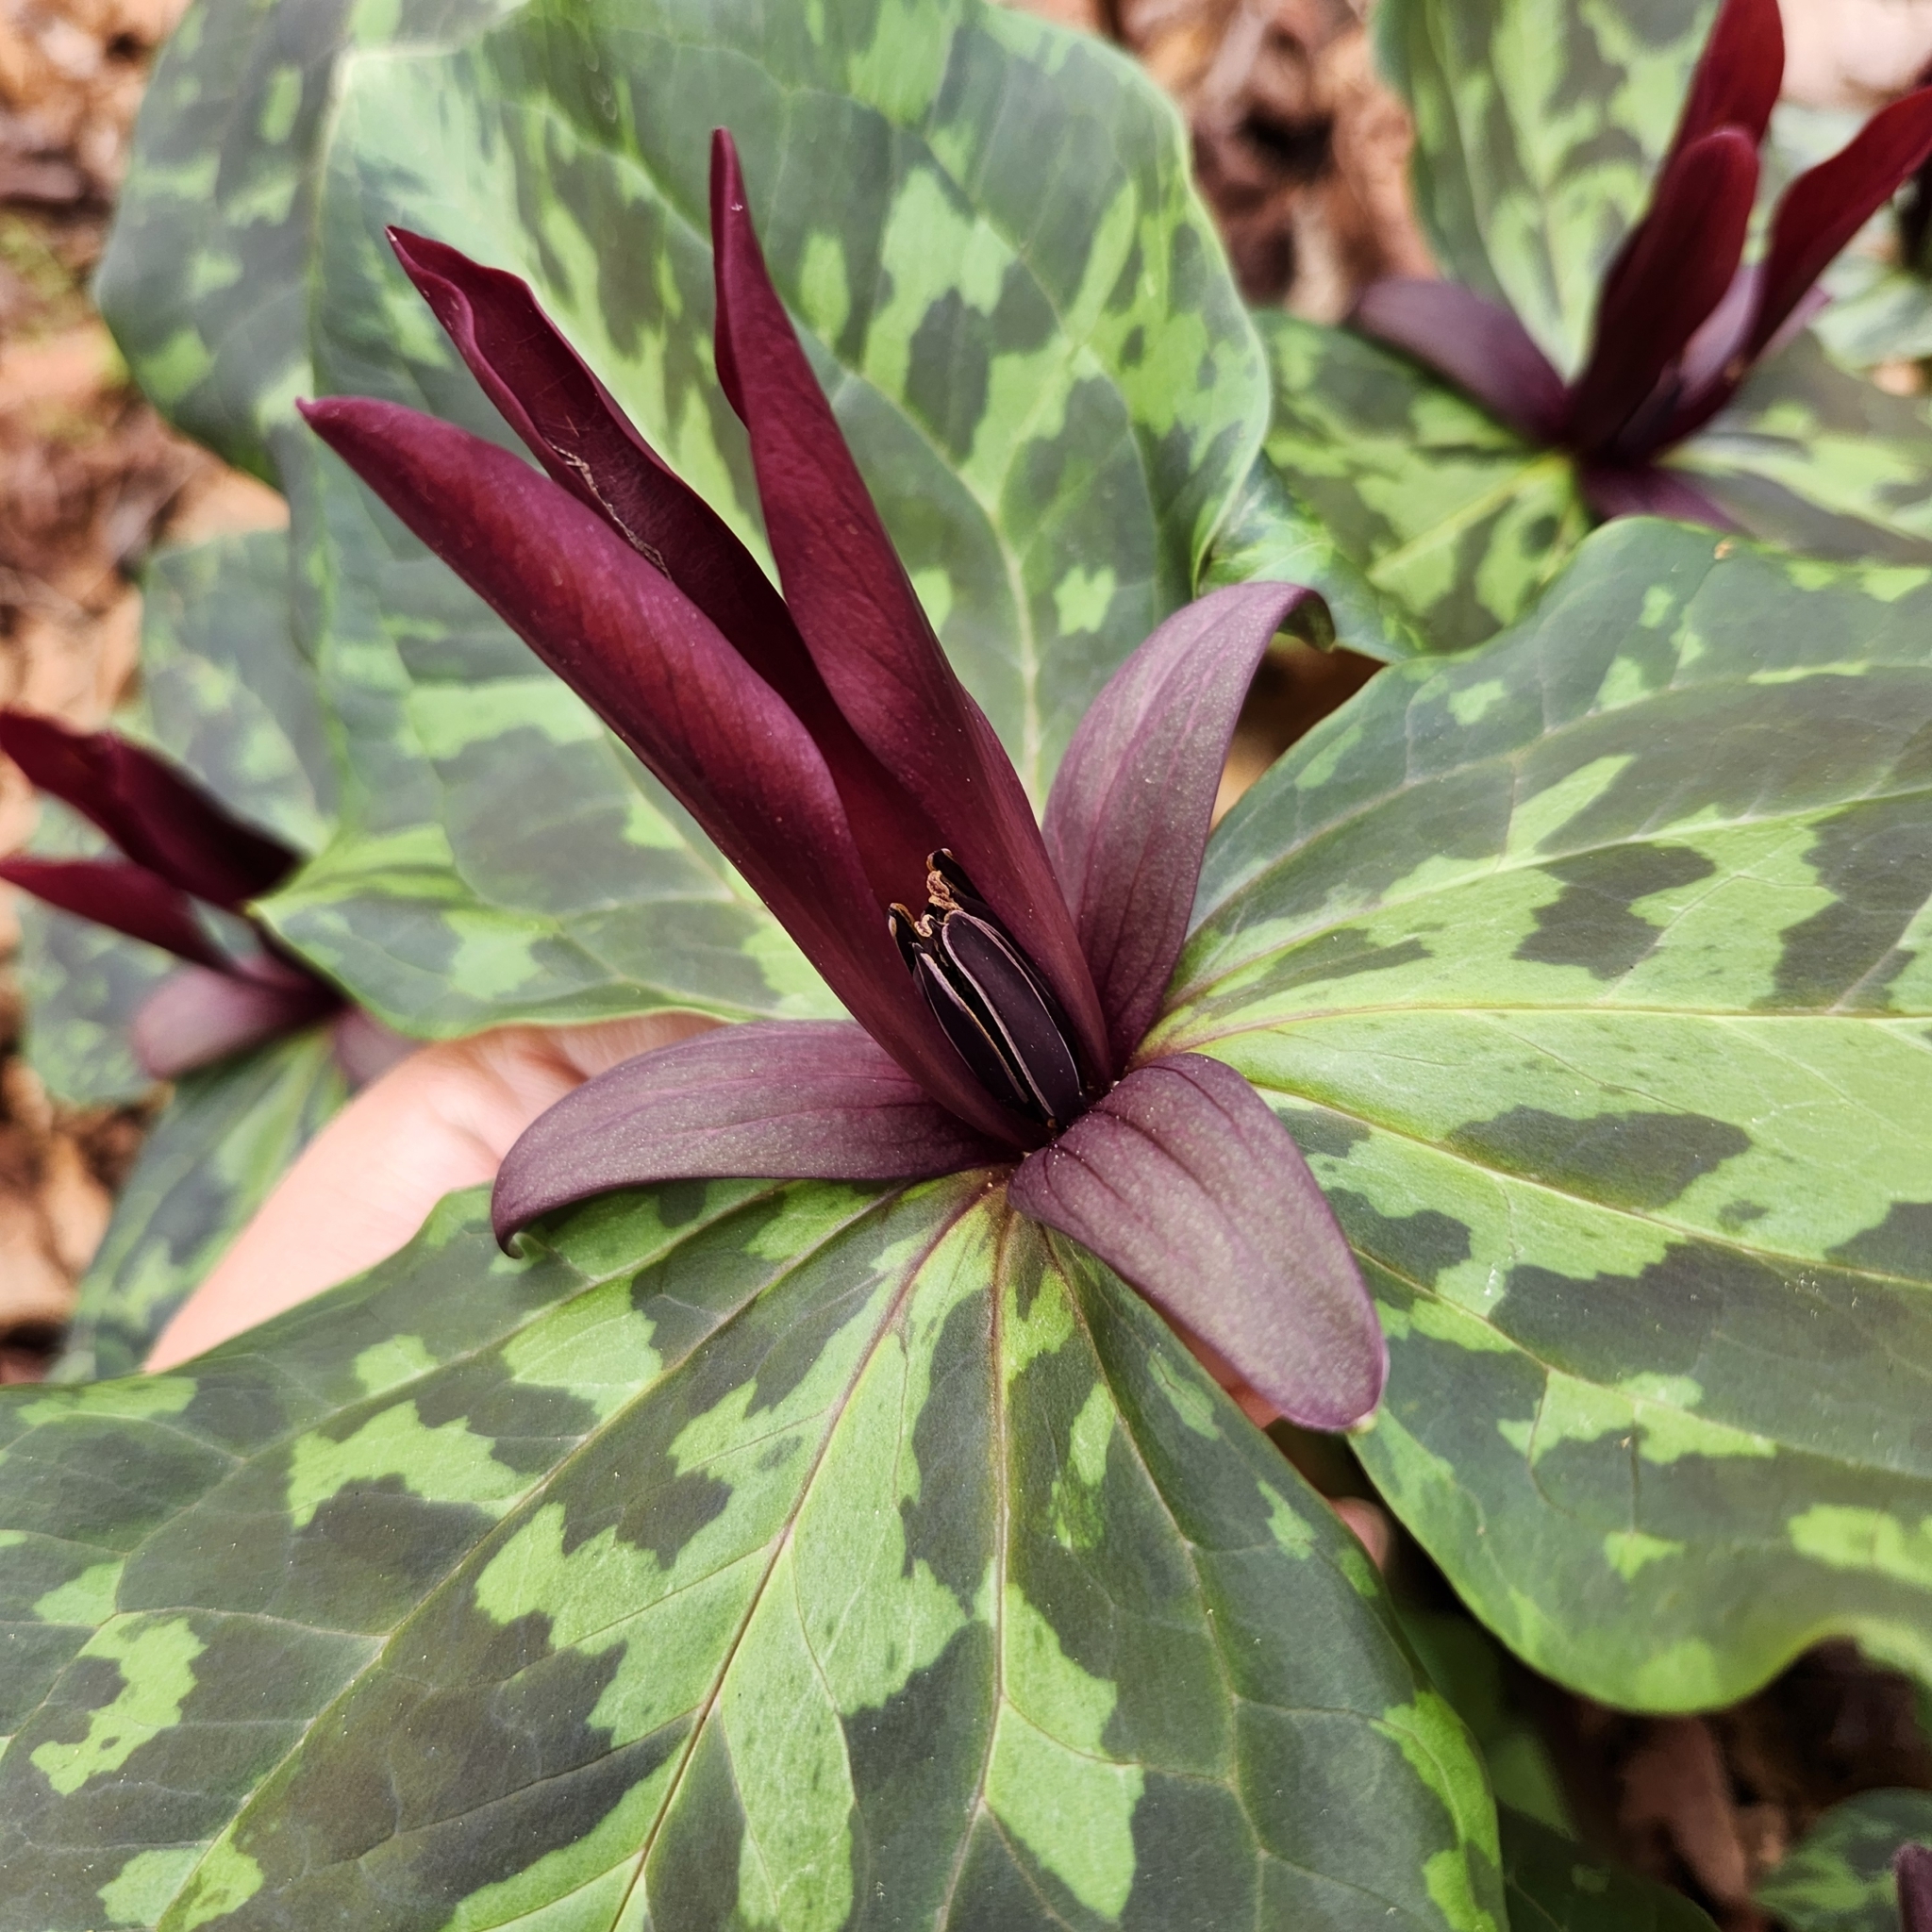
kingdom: Plantae
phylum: Tracheophyta
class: Liliopsida
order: Liliales
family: Melanthiaceae
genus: Trillium
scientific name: Trillium maculatum
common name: Mottled trillium
